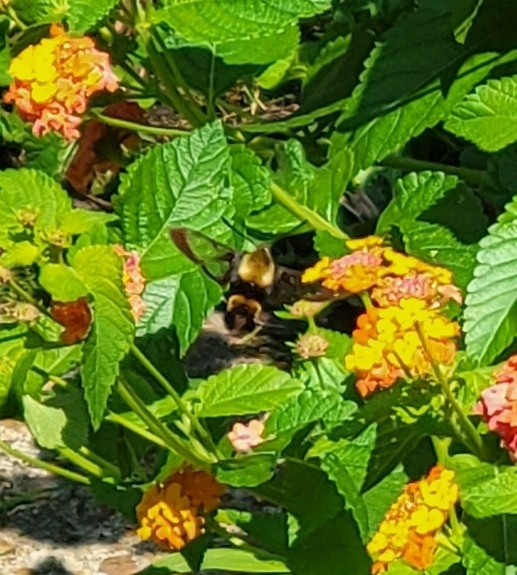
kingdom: Animalia
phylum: Arthropoda
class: Insecta
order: Lepidoptera
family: Sphingidae
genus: Hemaris
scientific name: Hemaris diffinis
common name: Bumblebee moth
